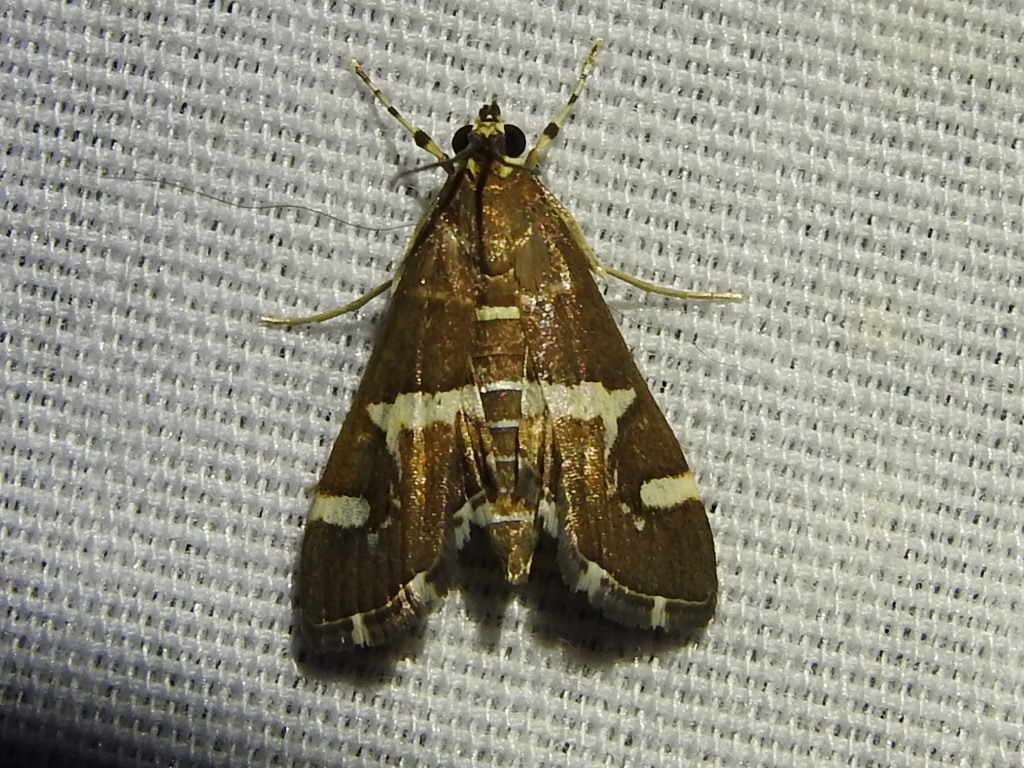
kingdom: Animalia
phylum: Arthropoda
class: Insecta
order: Lepidoptera
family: Crambidae
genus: Spoladea
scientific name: Spoladea recurvalis
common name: Beet webworm moth
